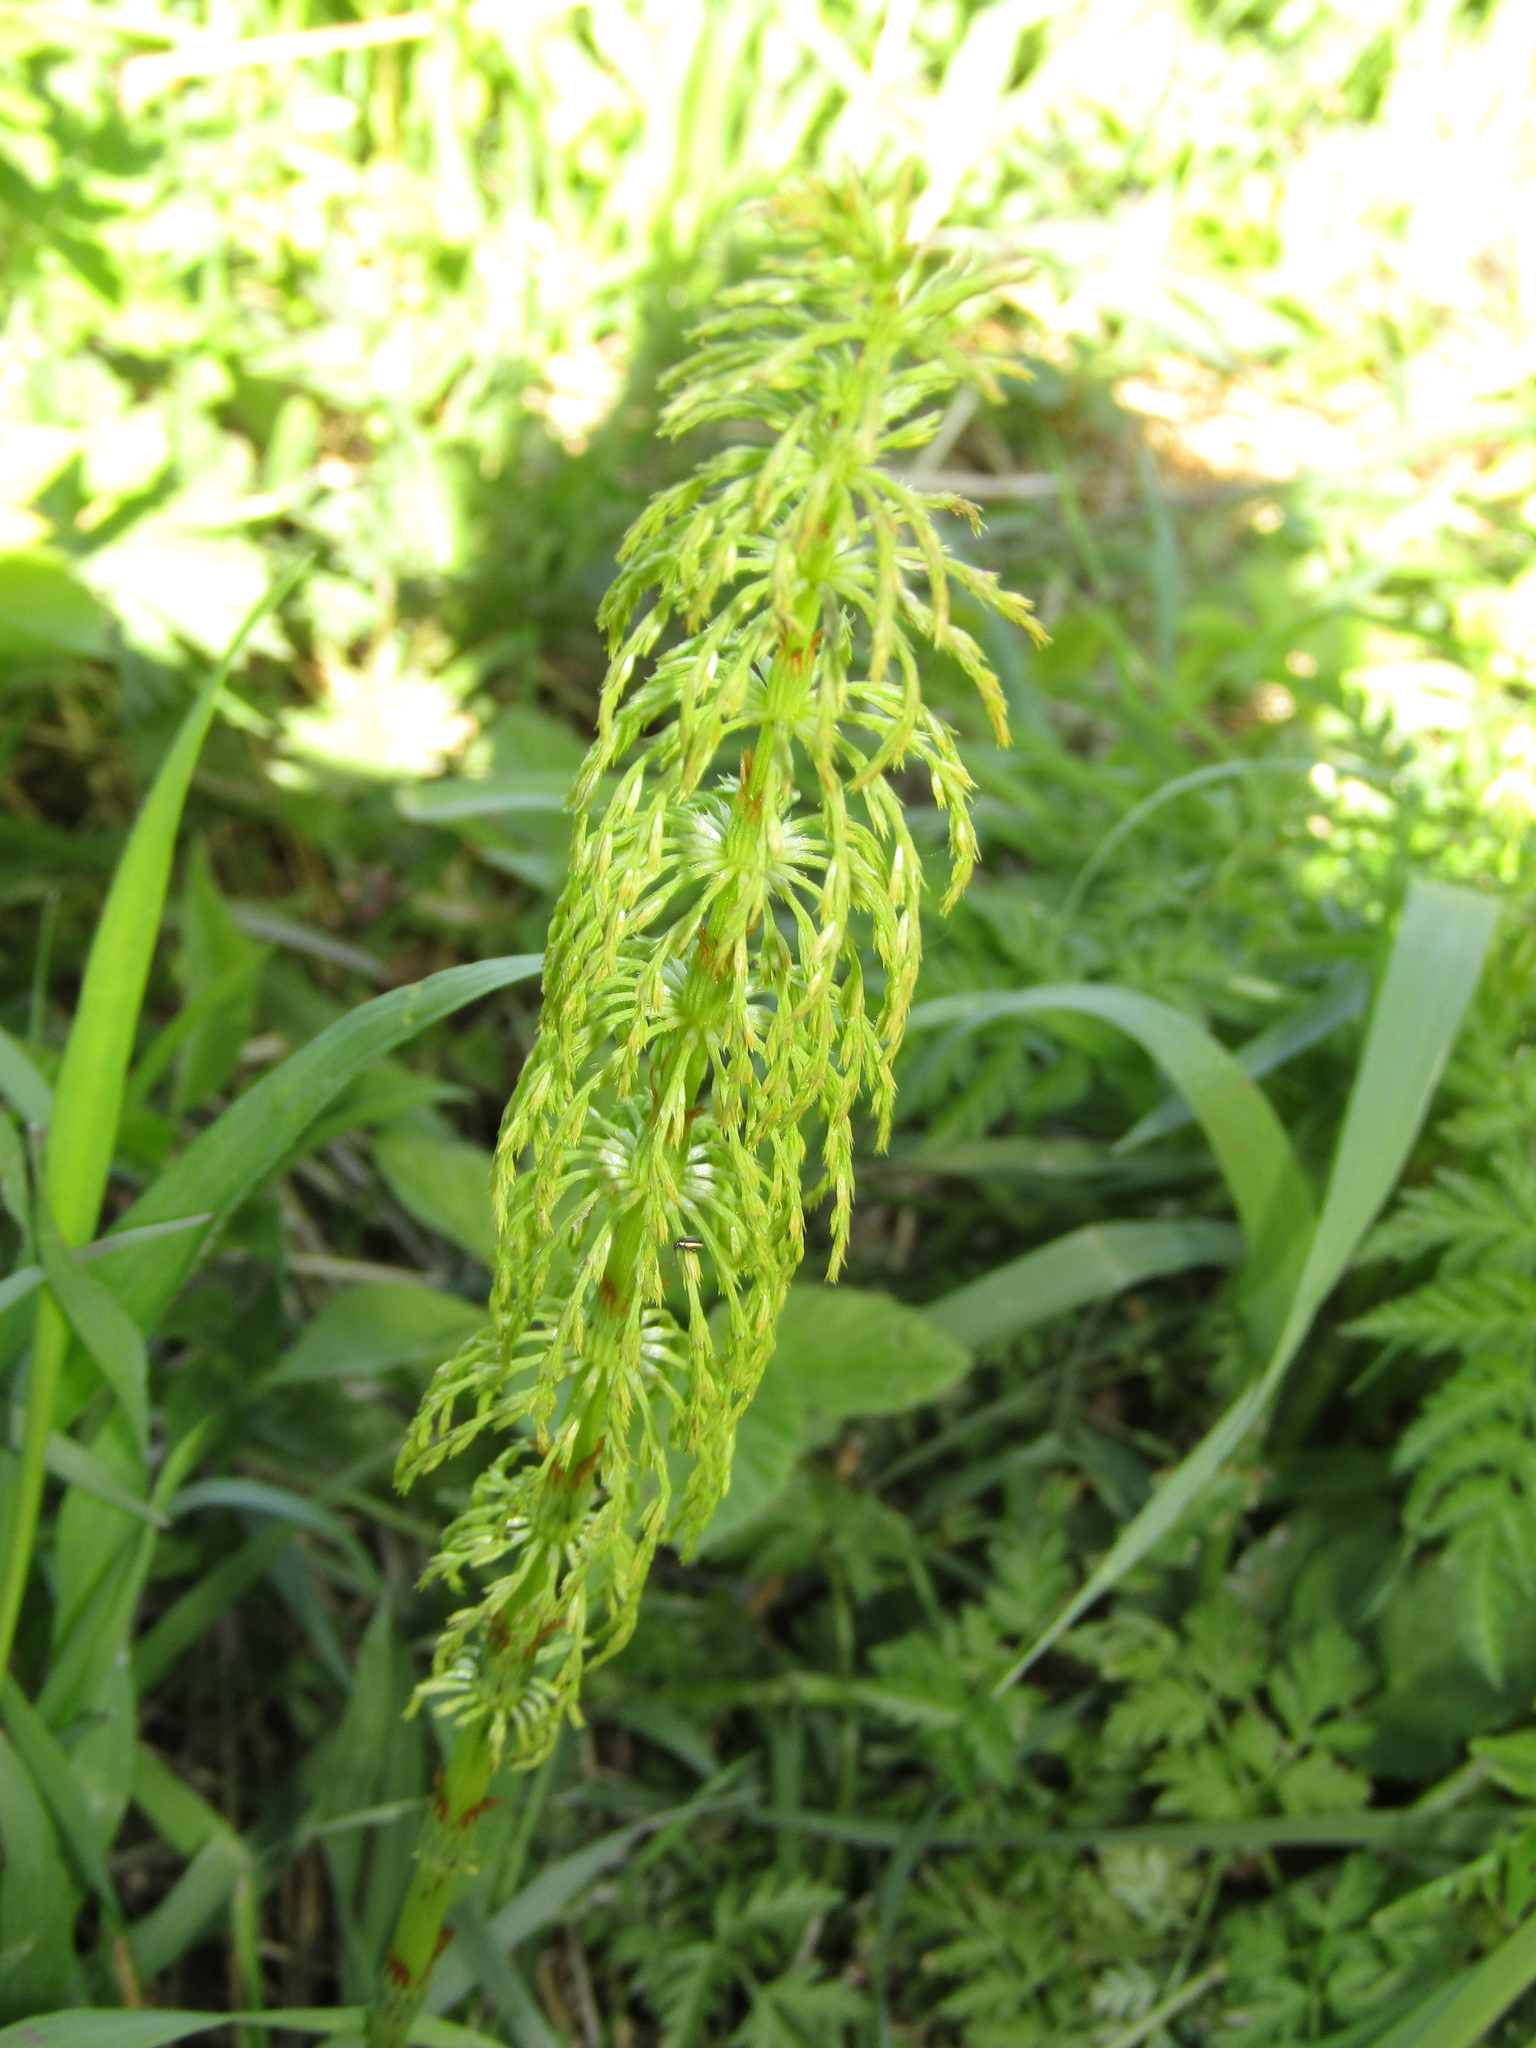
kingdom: Plantae
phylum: Tracheophyta
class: Polypodiopsida
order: Equisetales
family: Equisetaceae
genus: Equisetum
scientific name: Equisetum sylvaticum
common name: Wood horsetail
